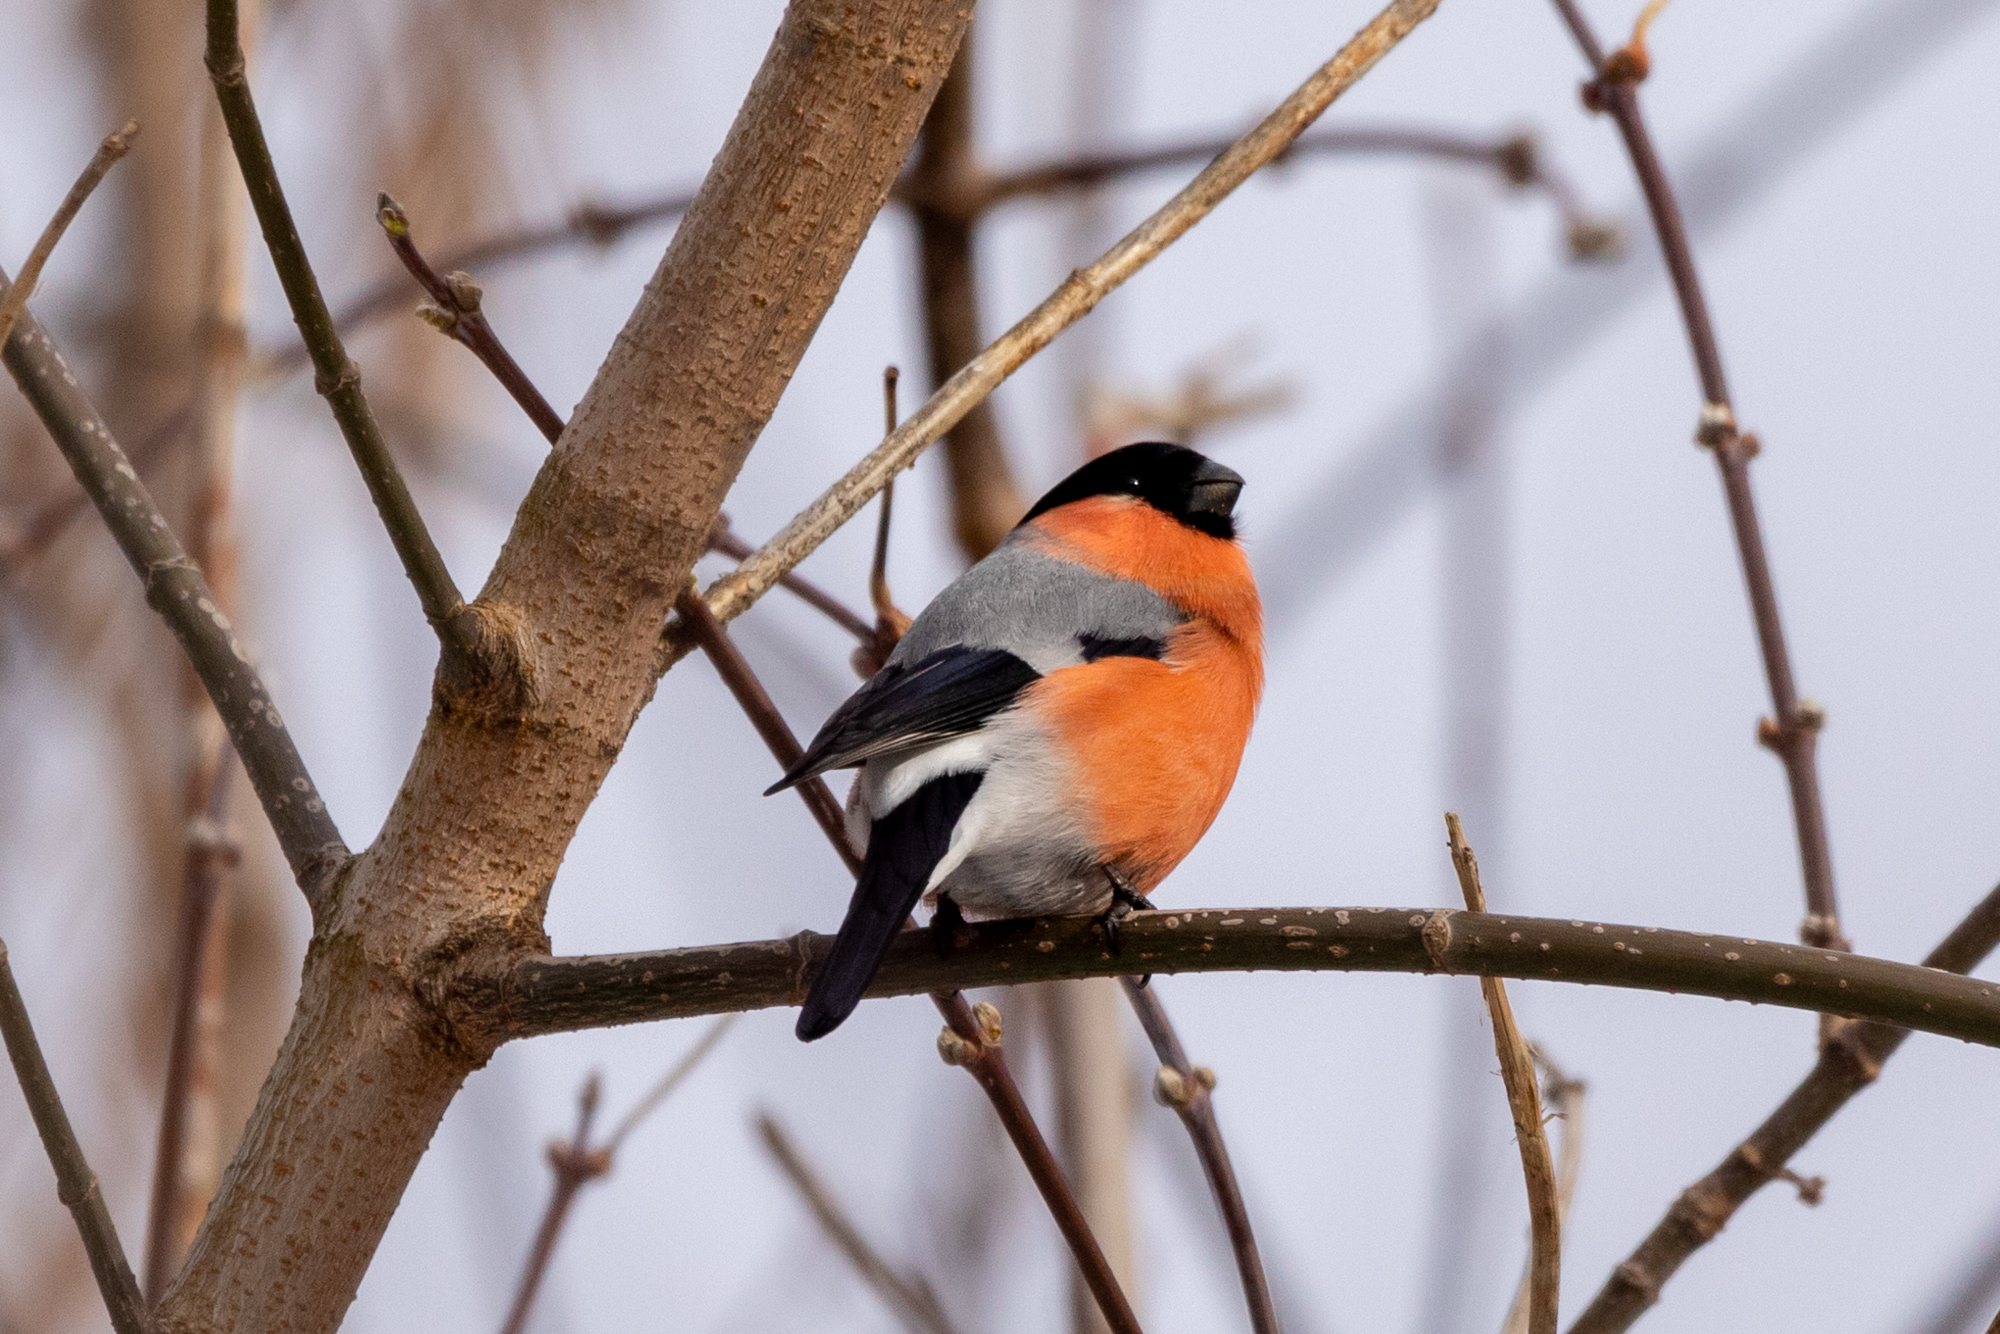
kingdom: Animalia
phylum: Chordata
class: Aves
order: Passeriformes
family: Fringillidae
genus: Pyrrhula
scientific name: Pyrrhula pyrrhula
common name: Eurasian bullfinch
